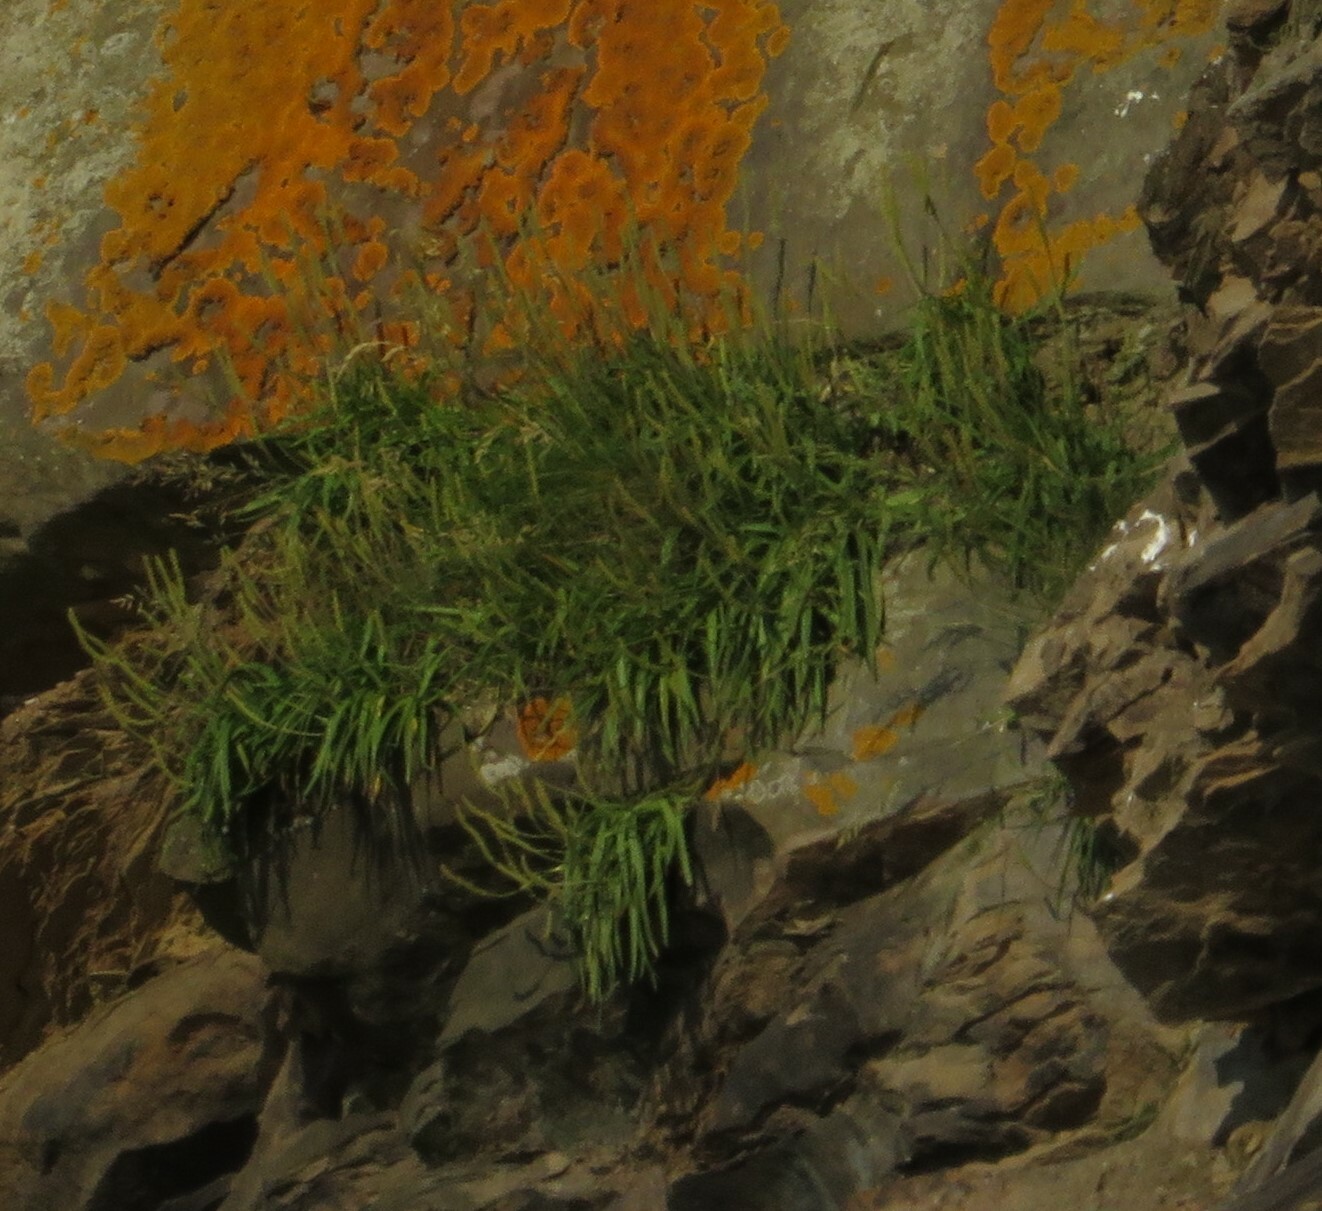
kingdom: Plantae
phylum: Tracheophyta
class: Magnoliopsida
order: Lamiales
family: Plantaginaceae
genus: Plantago
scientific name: Plantago maritima
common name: Sea plantain
